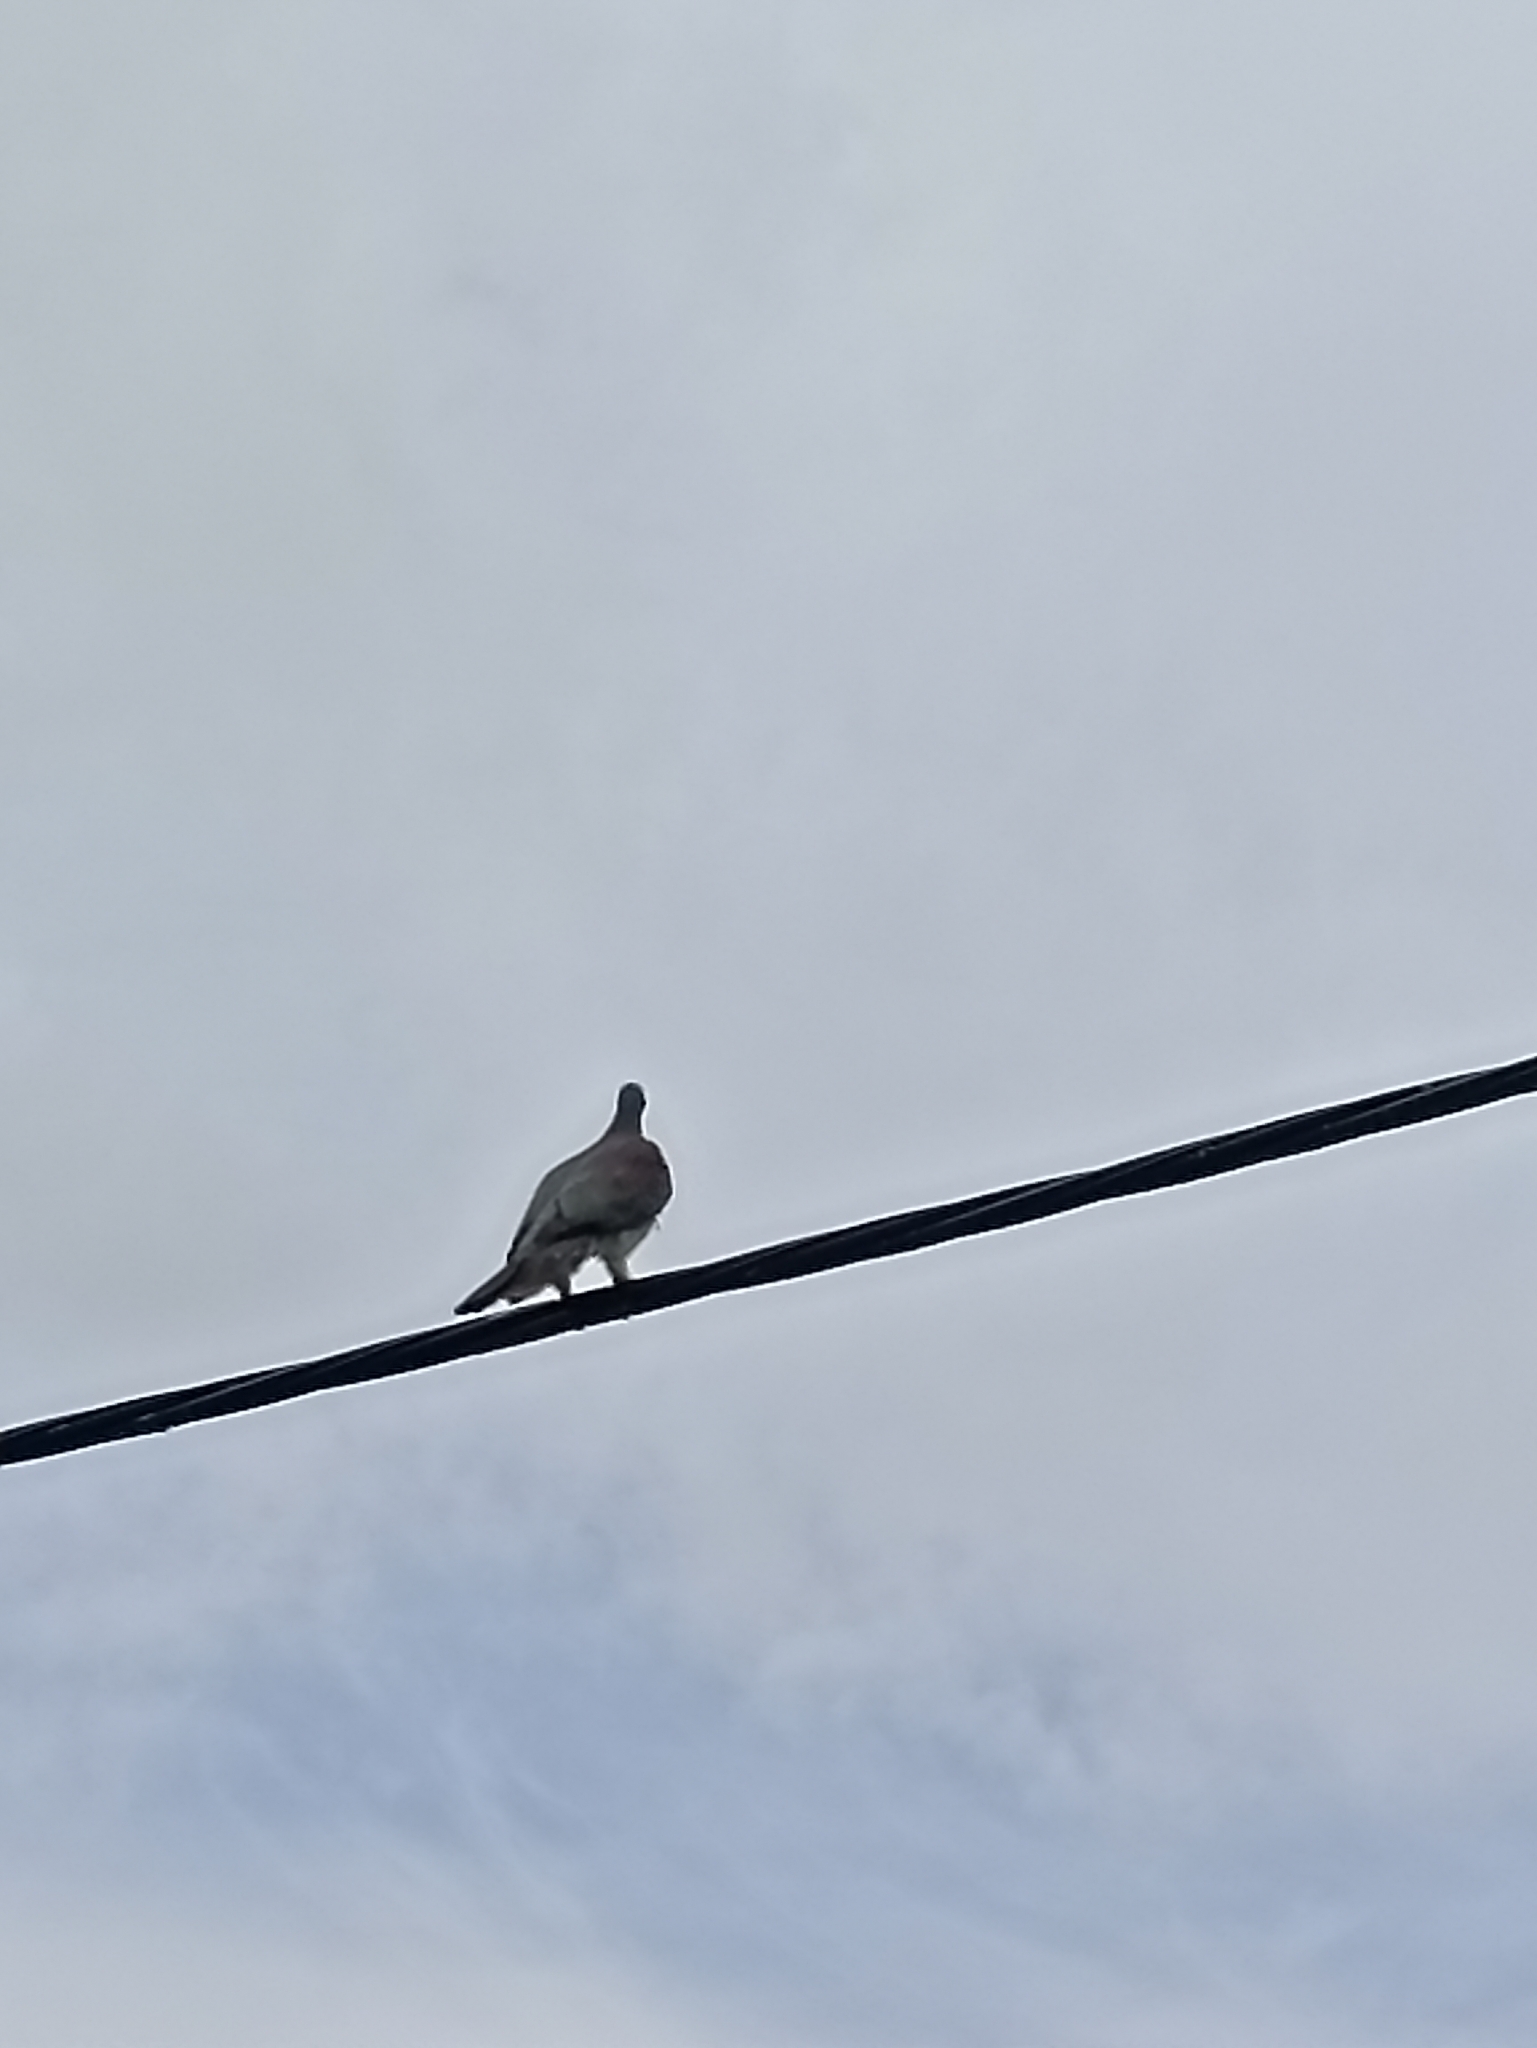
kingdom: Animalia
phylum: Chordata
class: Aves
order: Columbiformes
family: Columbidae
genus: Hemiphaga
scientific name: Hemiphaga novaeseelandiae
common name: New zealand pigeon
